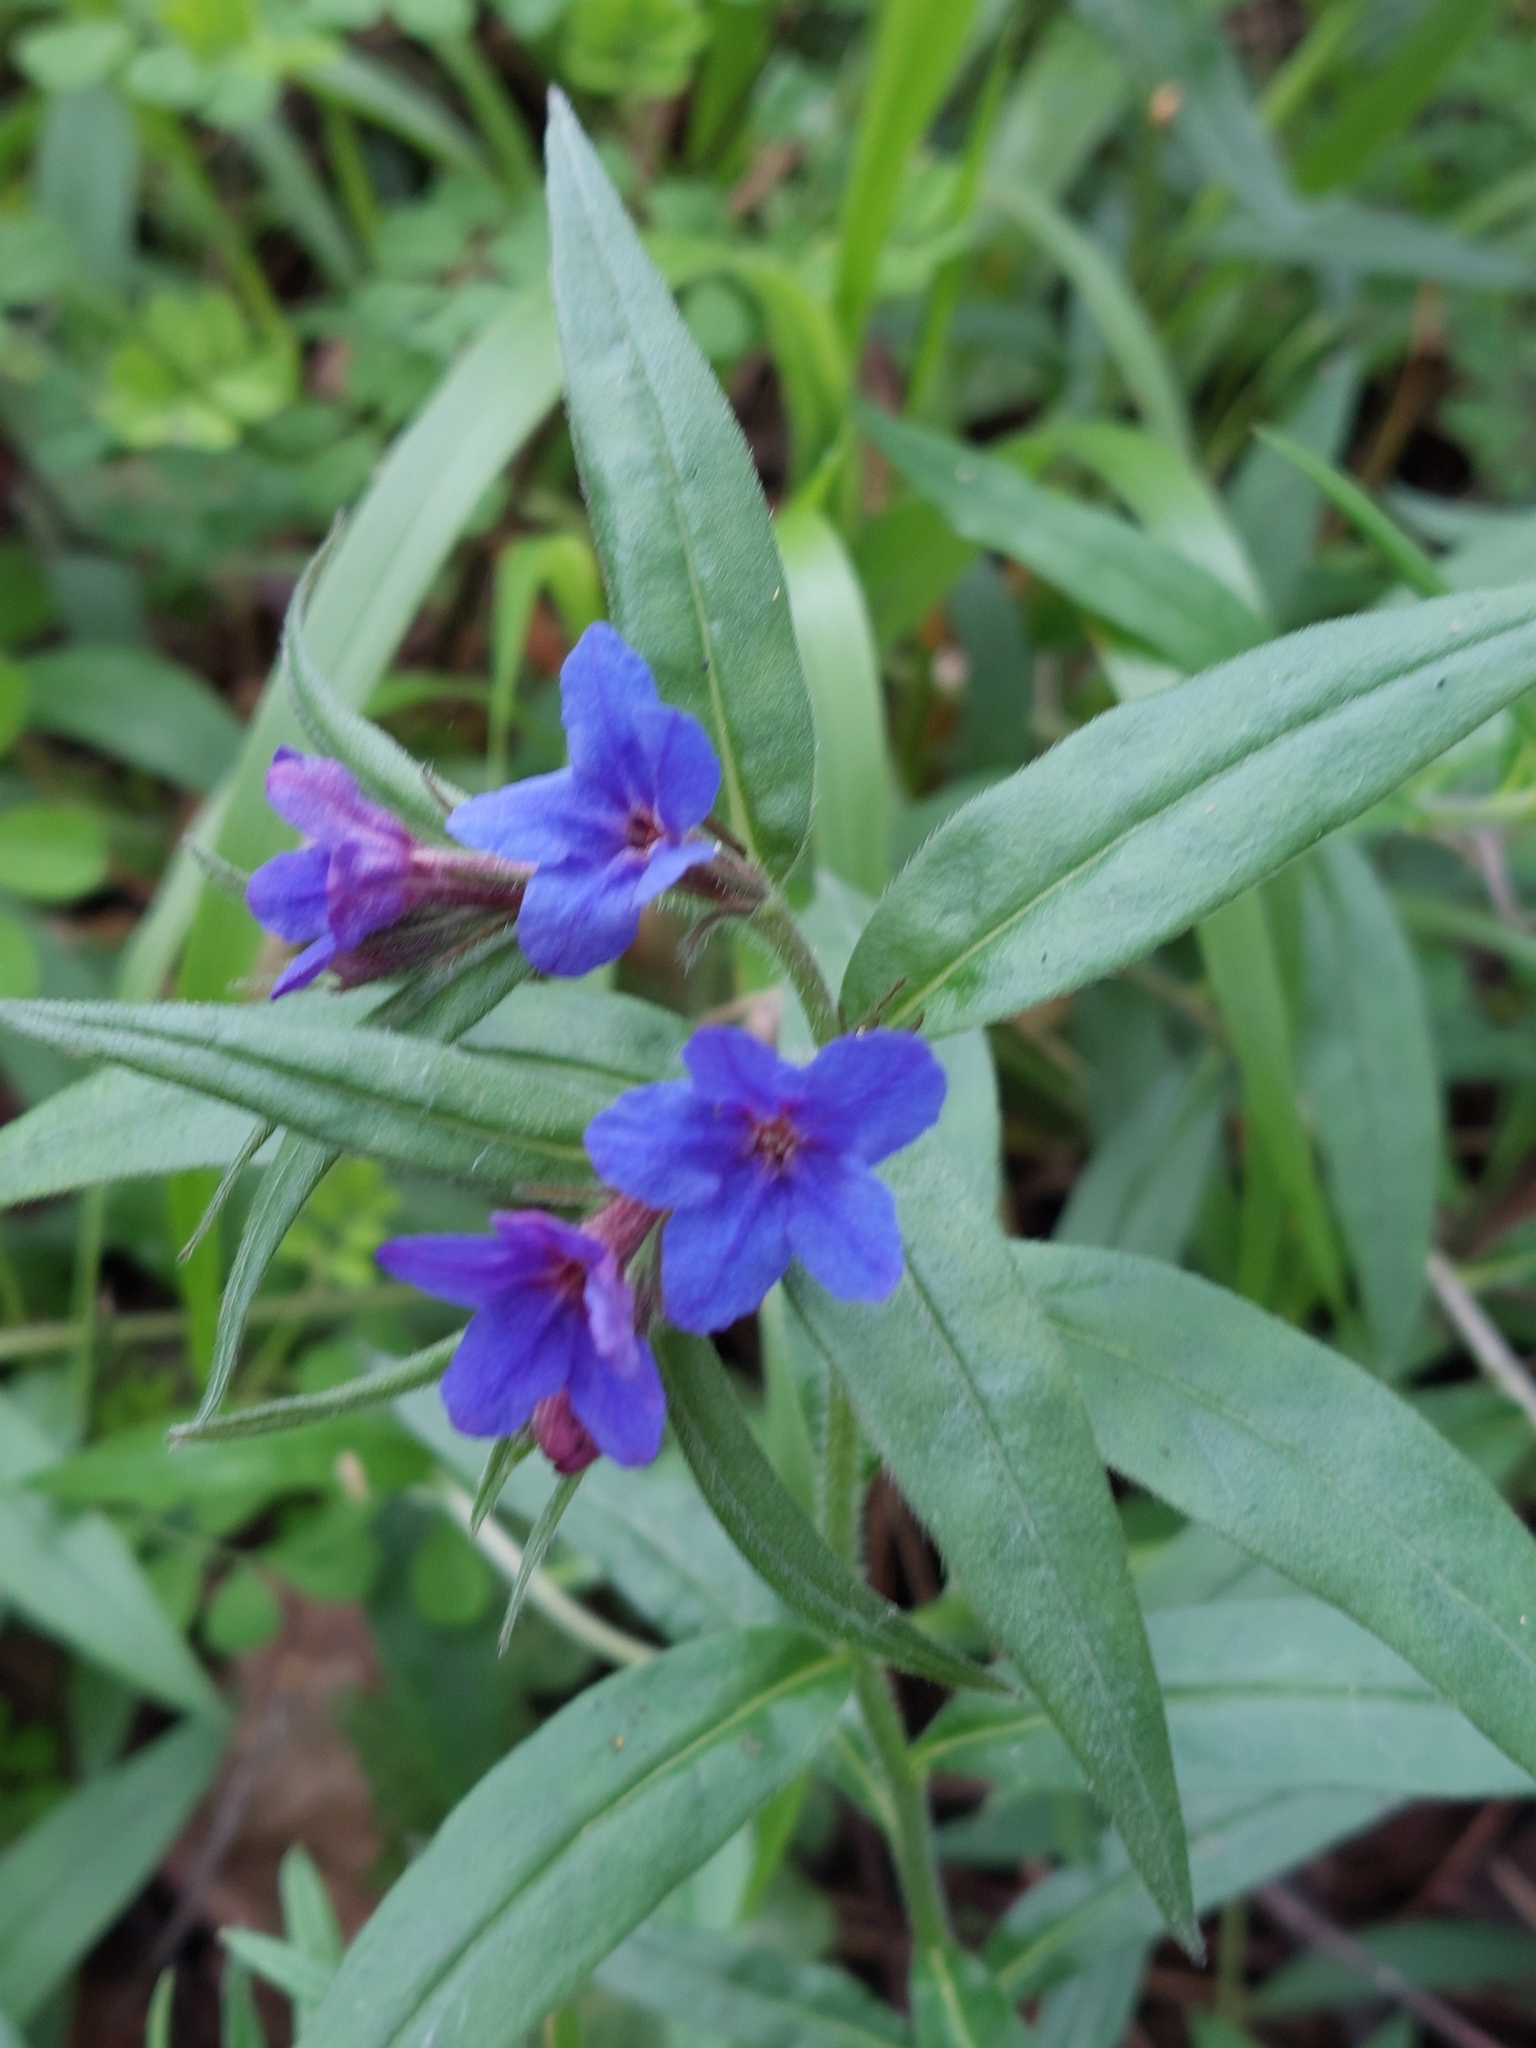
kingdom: Plantae
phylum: Tracheophyta
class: Magnoliopsida
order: Boraginales
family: Boraginaceae
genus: Aegonychon
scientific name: Aegonychon purpurocaeruleum
